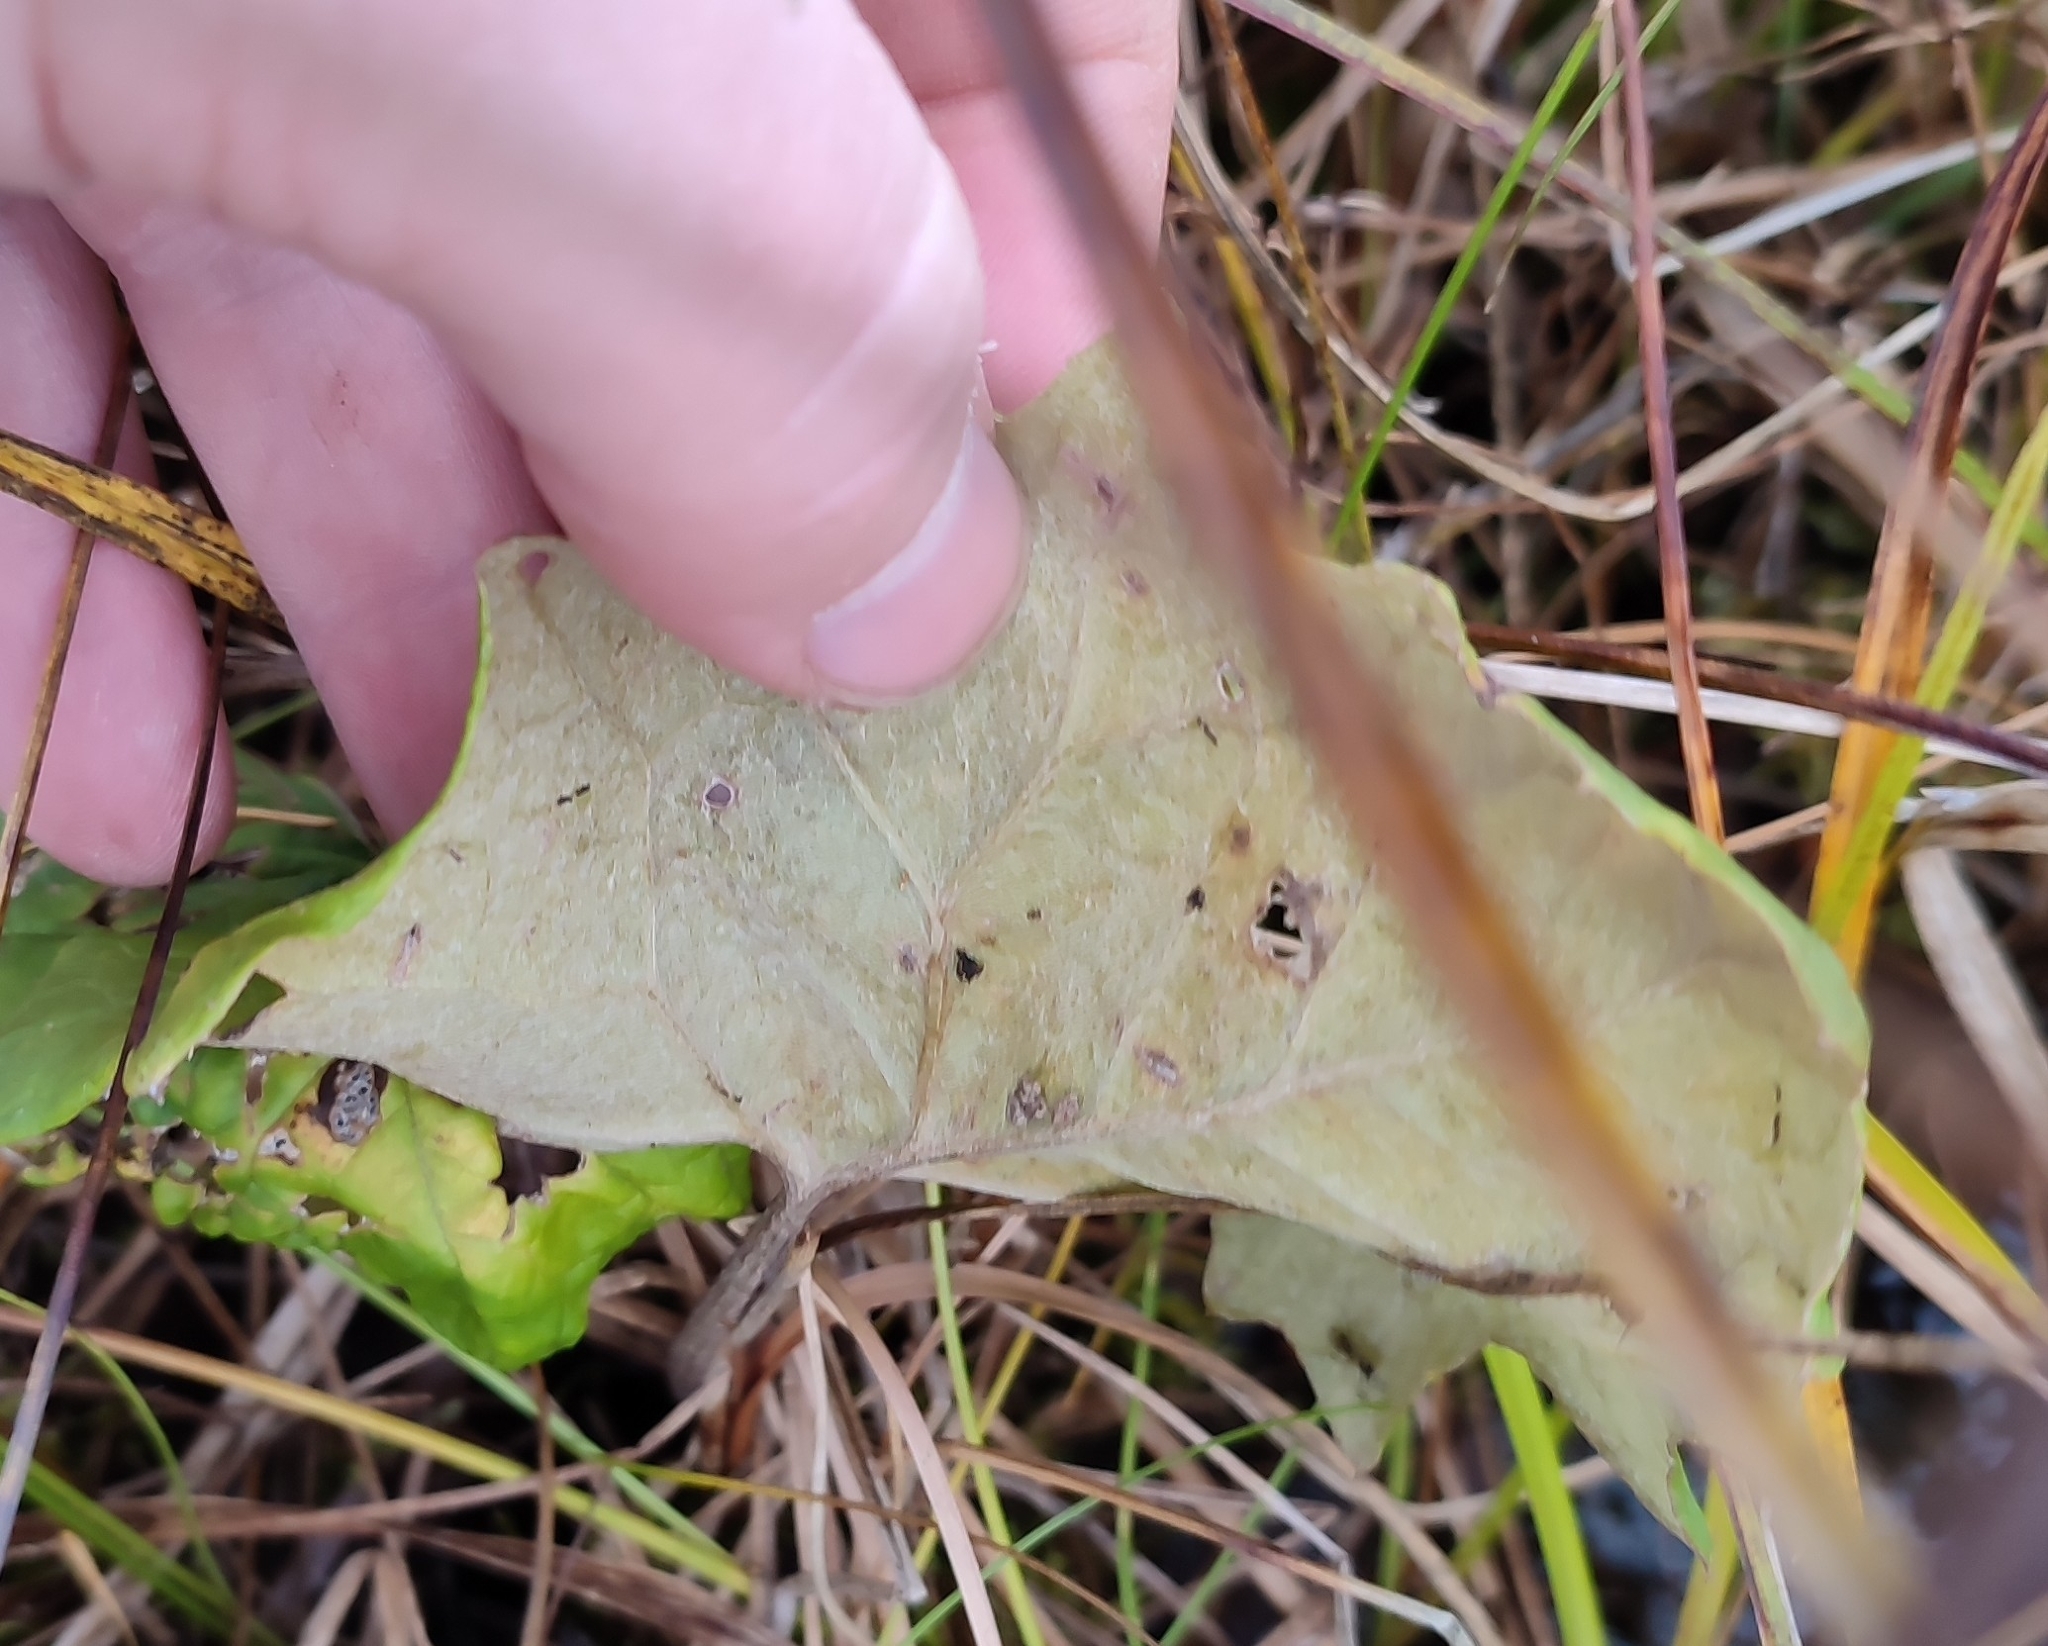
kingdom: Plantae
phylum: Tracheophyta
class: Magnoliopsida
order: Asterales
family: Asteraceae
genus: Petasites
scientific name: Petasites frigidus
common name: Arctic butterbur
